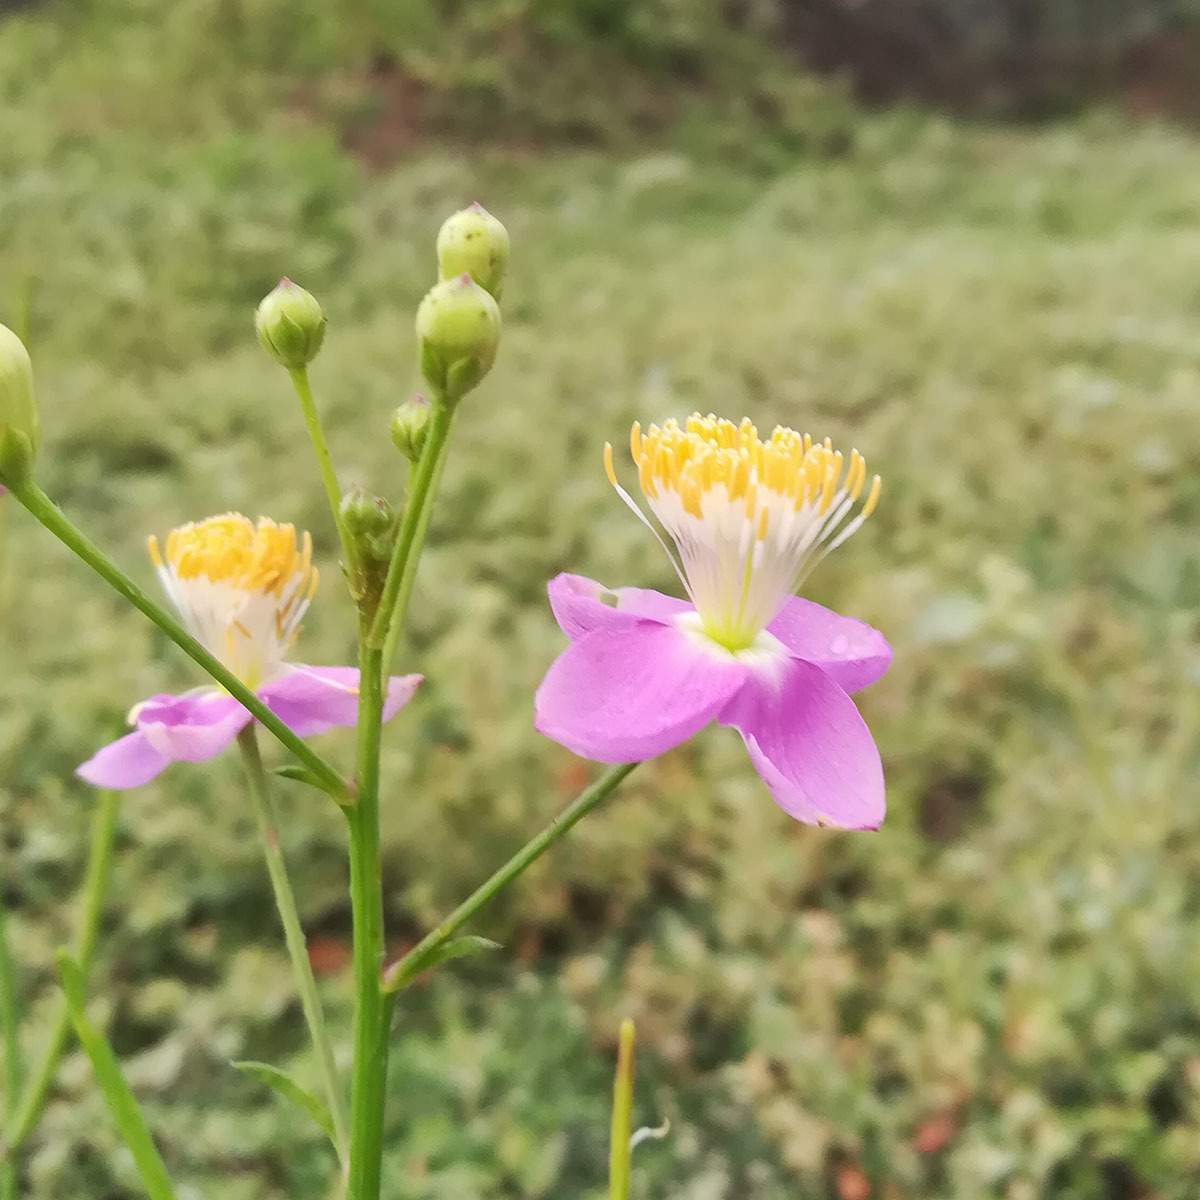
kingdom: Plantae
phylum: Tracheophyta
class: Magnoliopsida
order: Brassicales
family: Cleomaceae
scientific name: Cleomaceae
